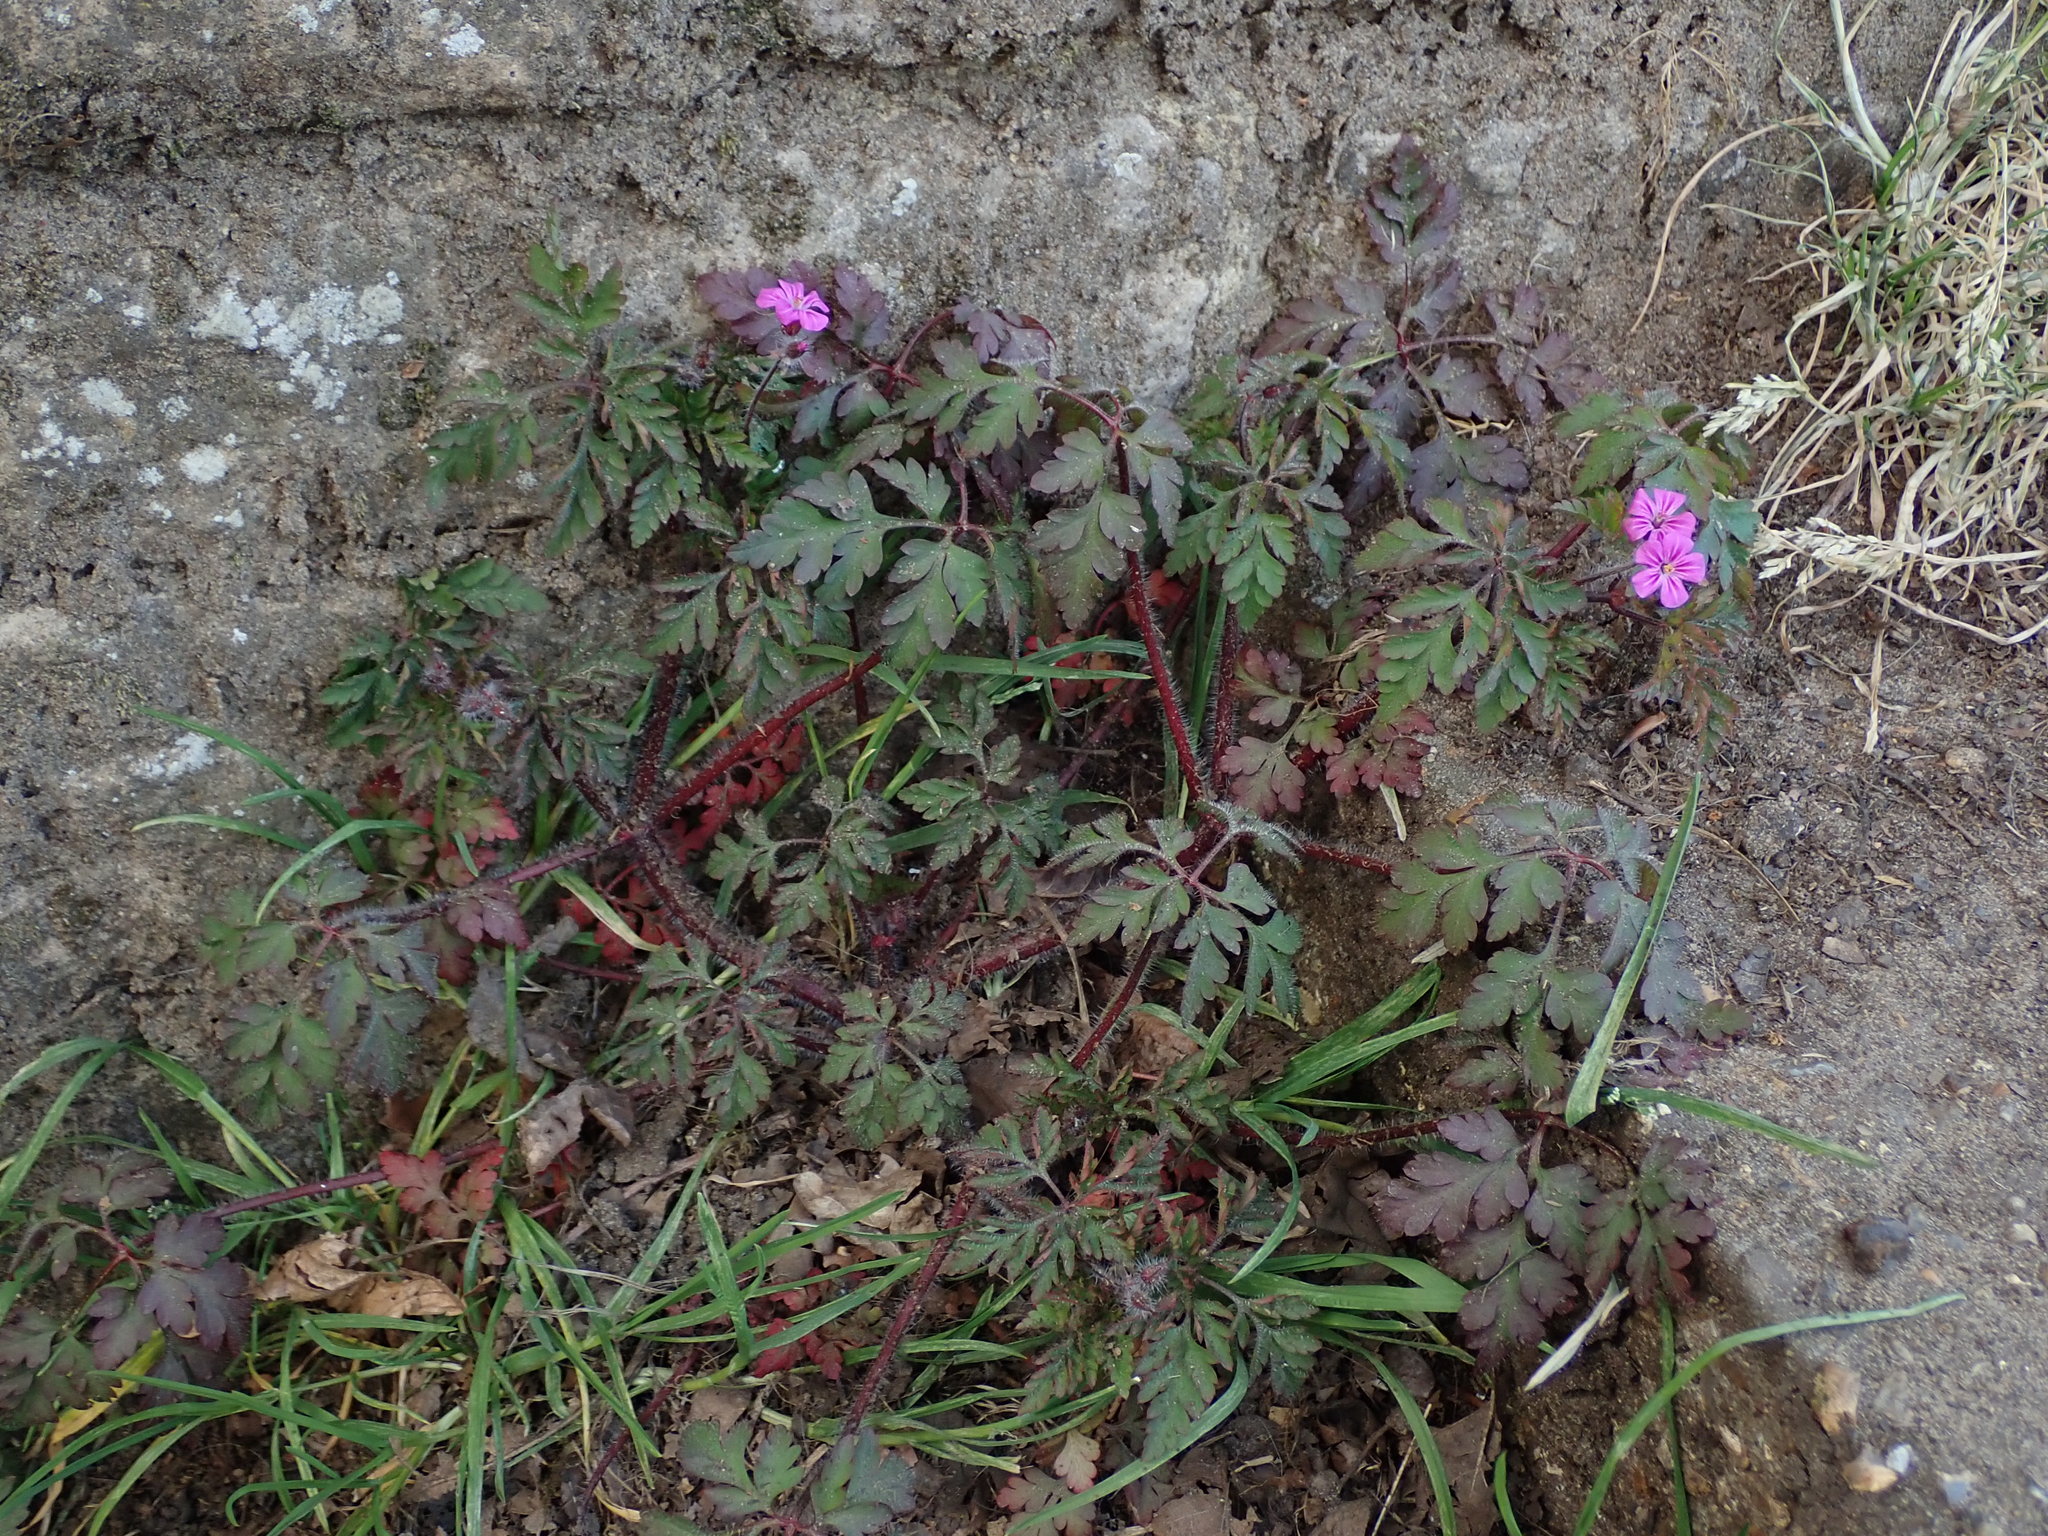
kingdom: Plantae
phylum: Tracheophyta
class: Magnoliopsida
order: Geraniales
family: Geraniaceae
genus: Geranium
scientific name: Geranium robertianum
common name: Herb-robert
